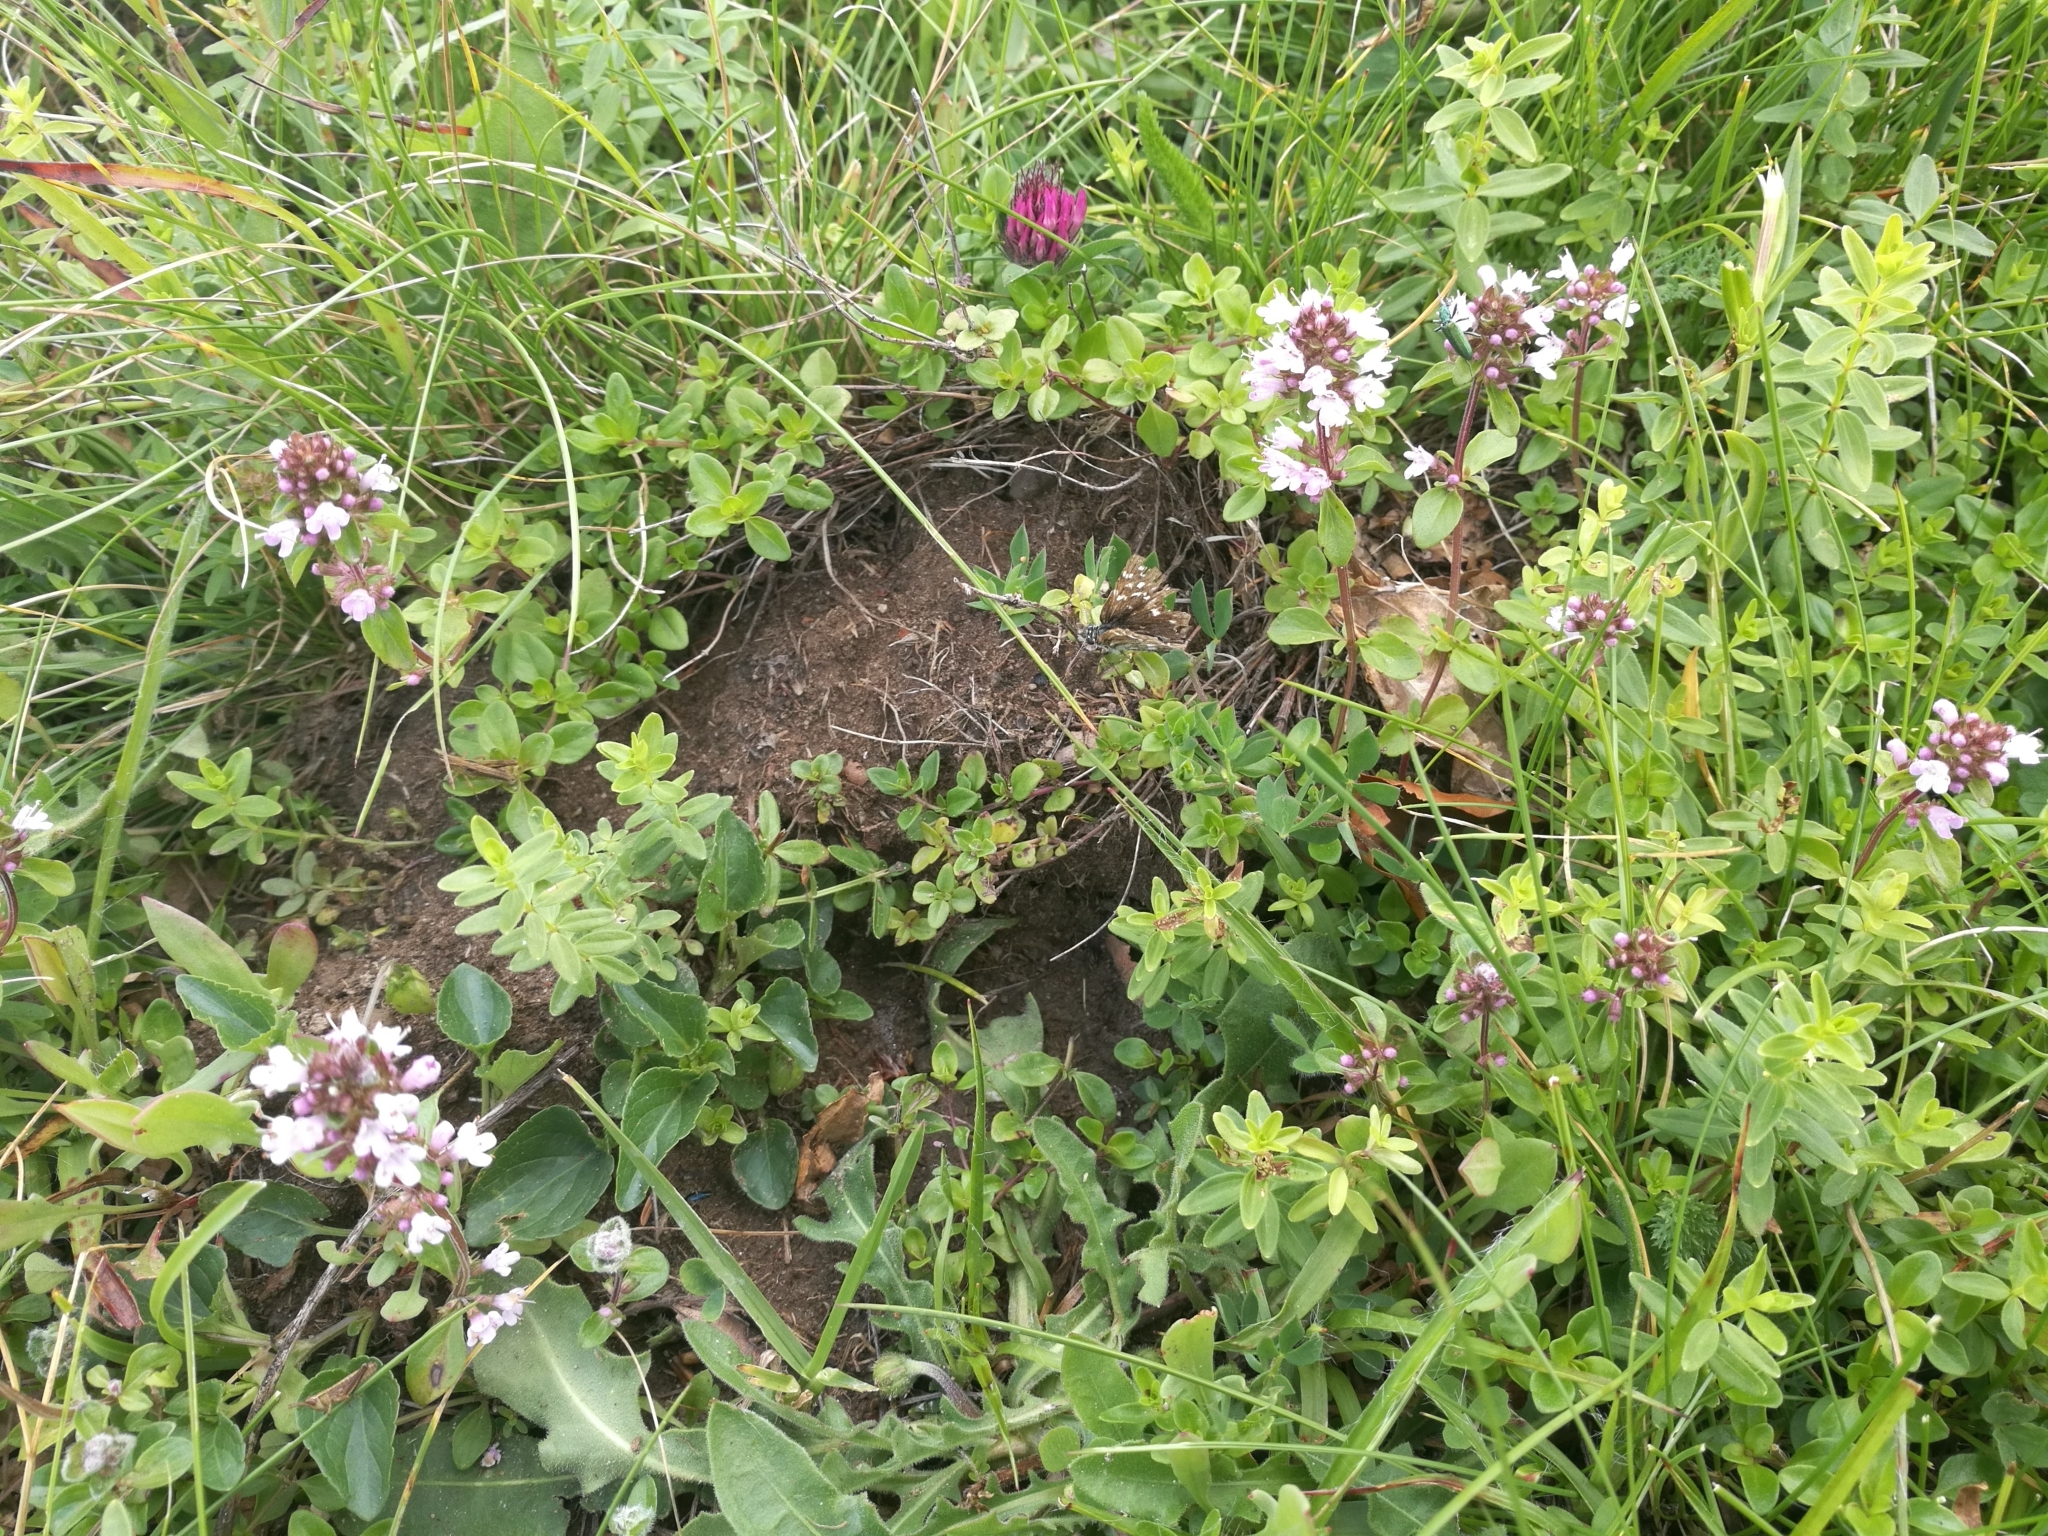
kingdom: Animalia
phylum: Arthropoda
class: Insecta
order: Lepidoptera
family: Hesperiidae
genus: Pyrgus
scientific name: Pyrgus malvoides
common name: Southern grizzled skipper
